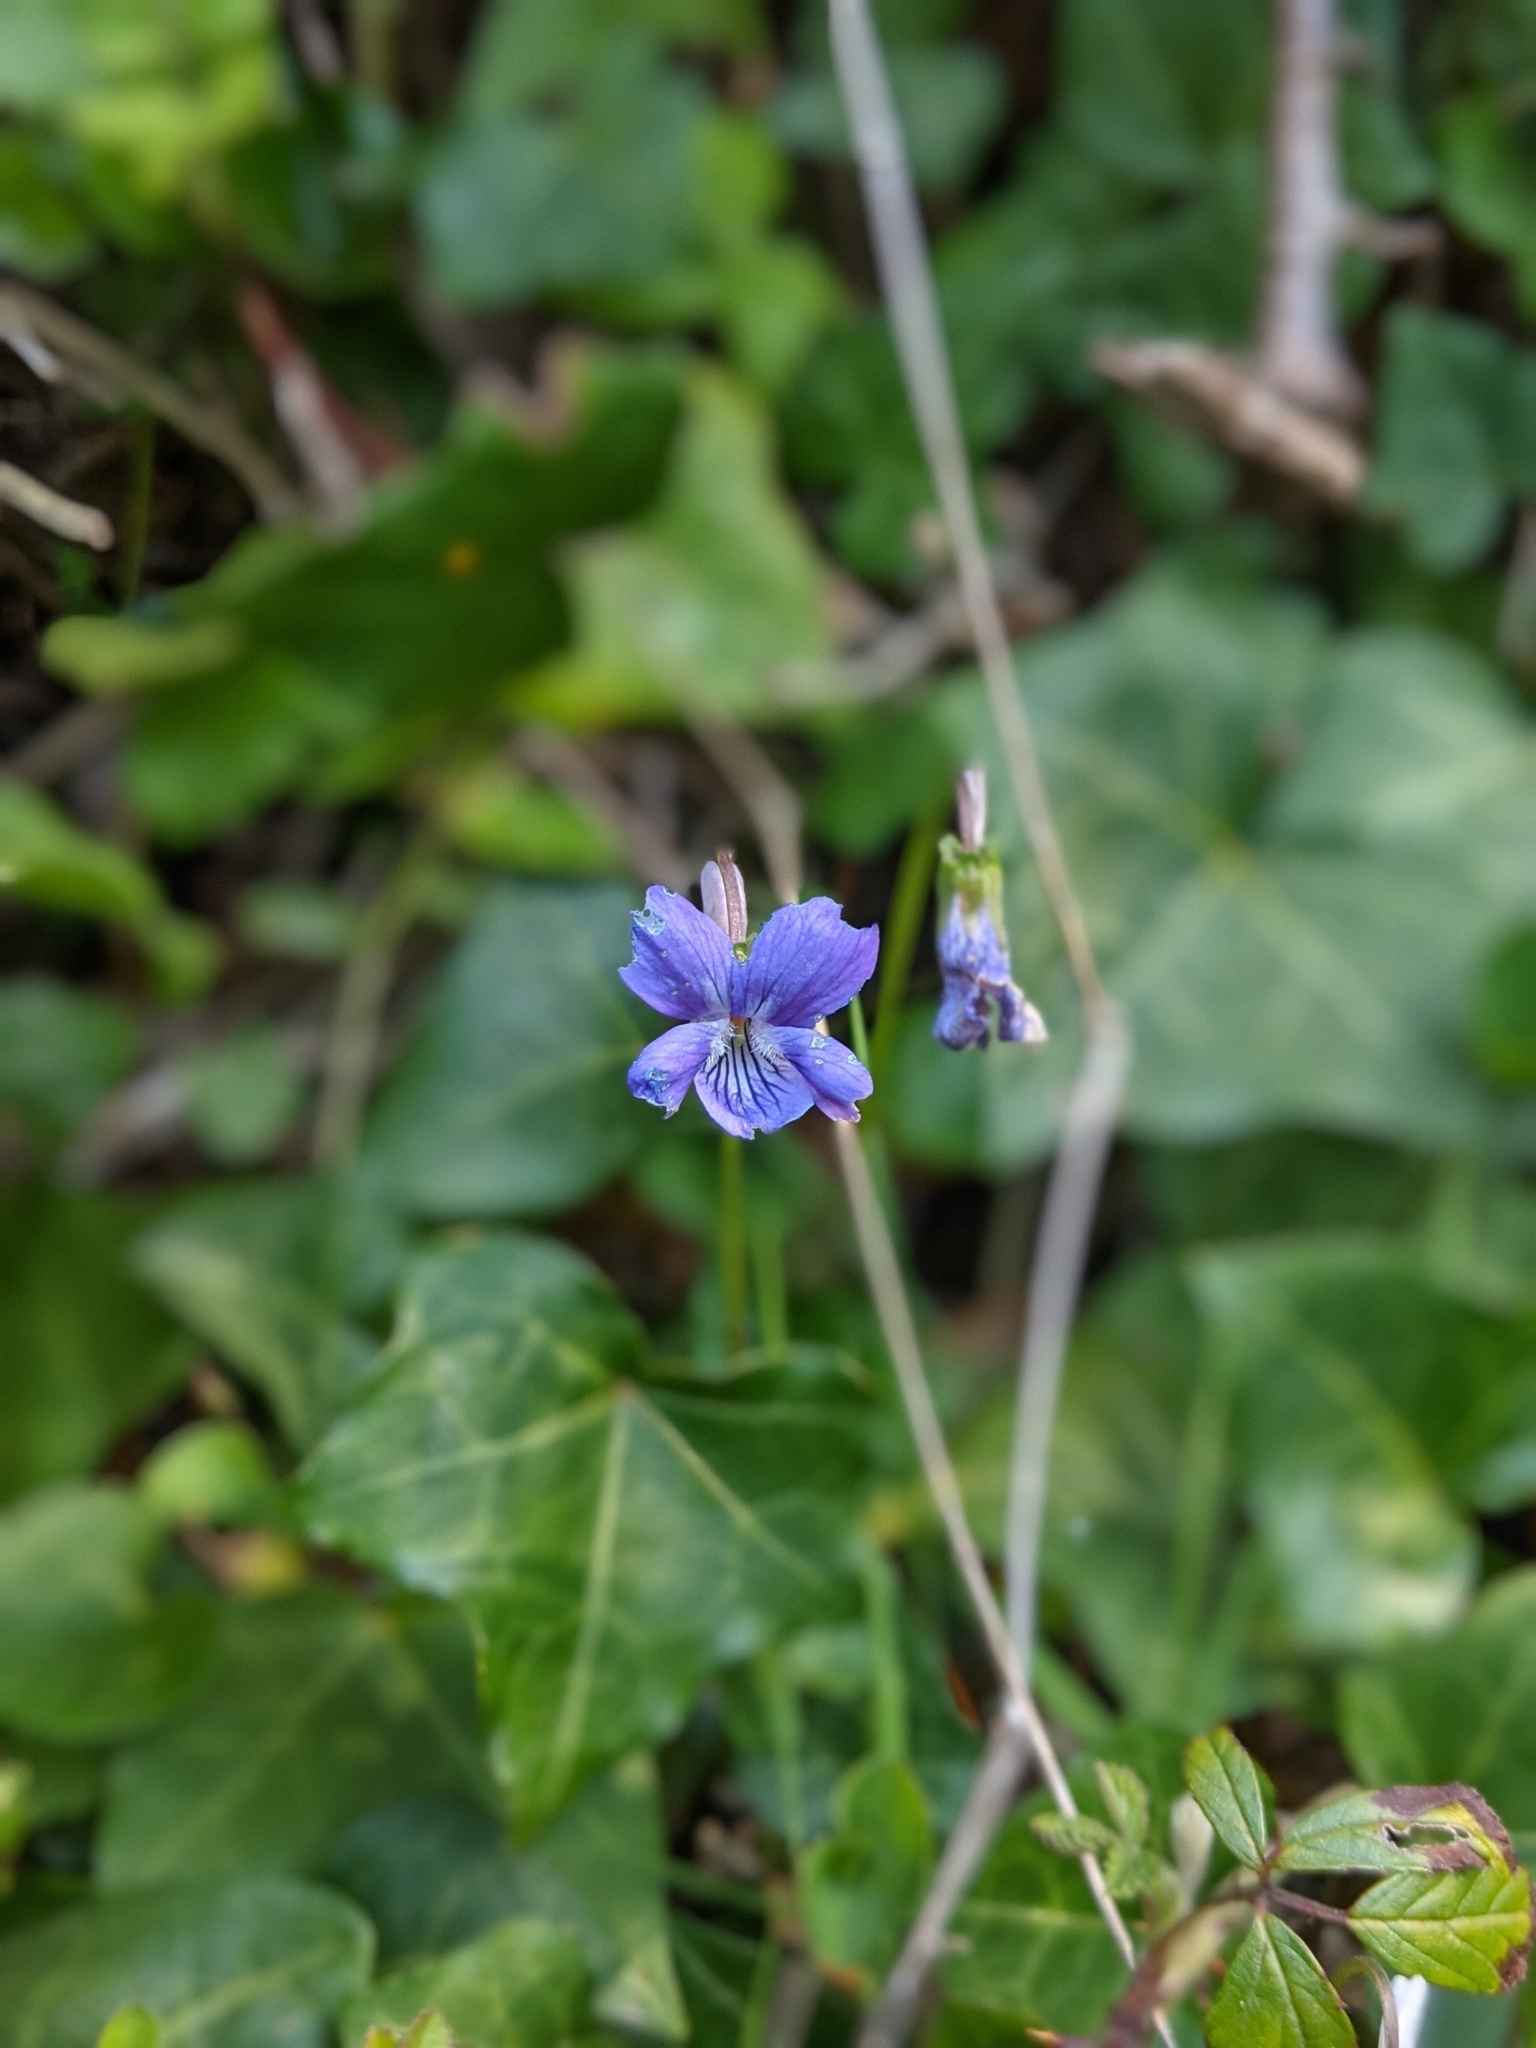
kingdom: Plantae
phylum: Tracheophyta
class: Magnoliopsida
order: Malpighiales
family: Violaceae
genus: Viola
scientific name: Viola riviniana
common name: Common dog-violet
